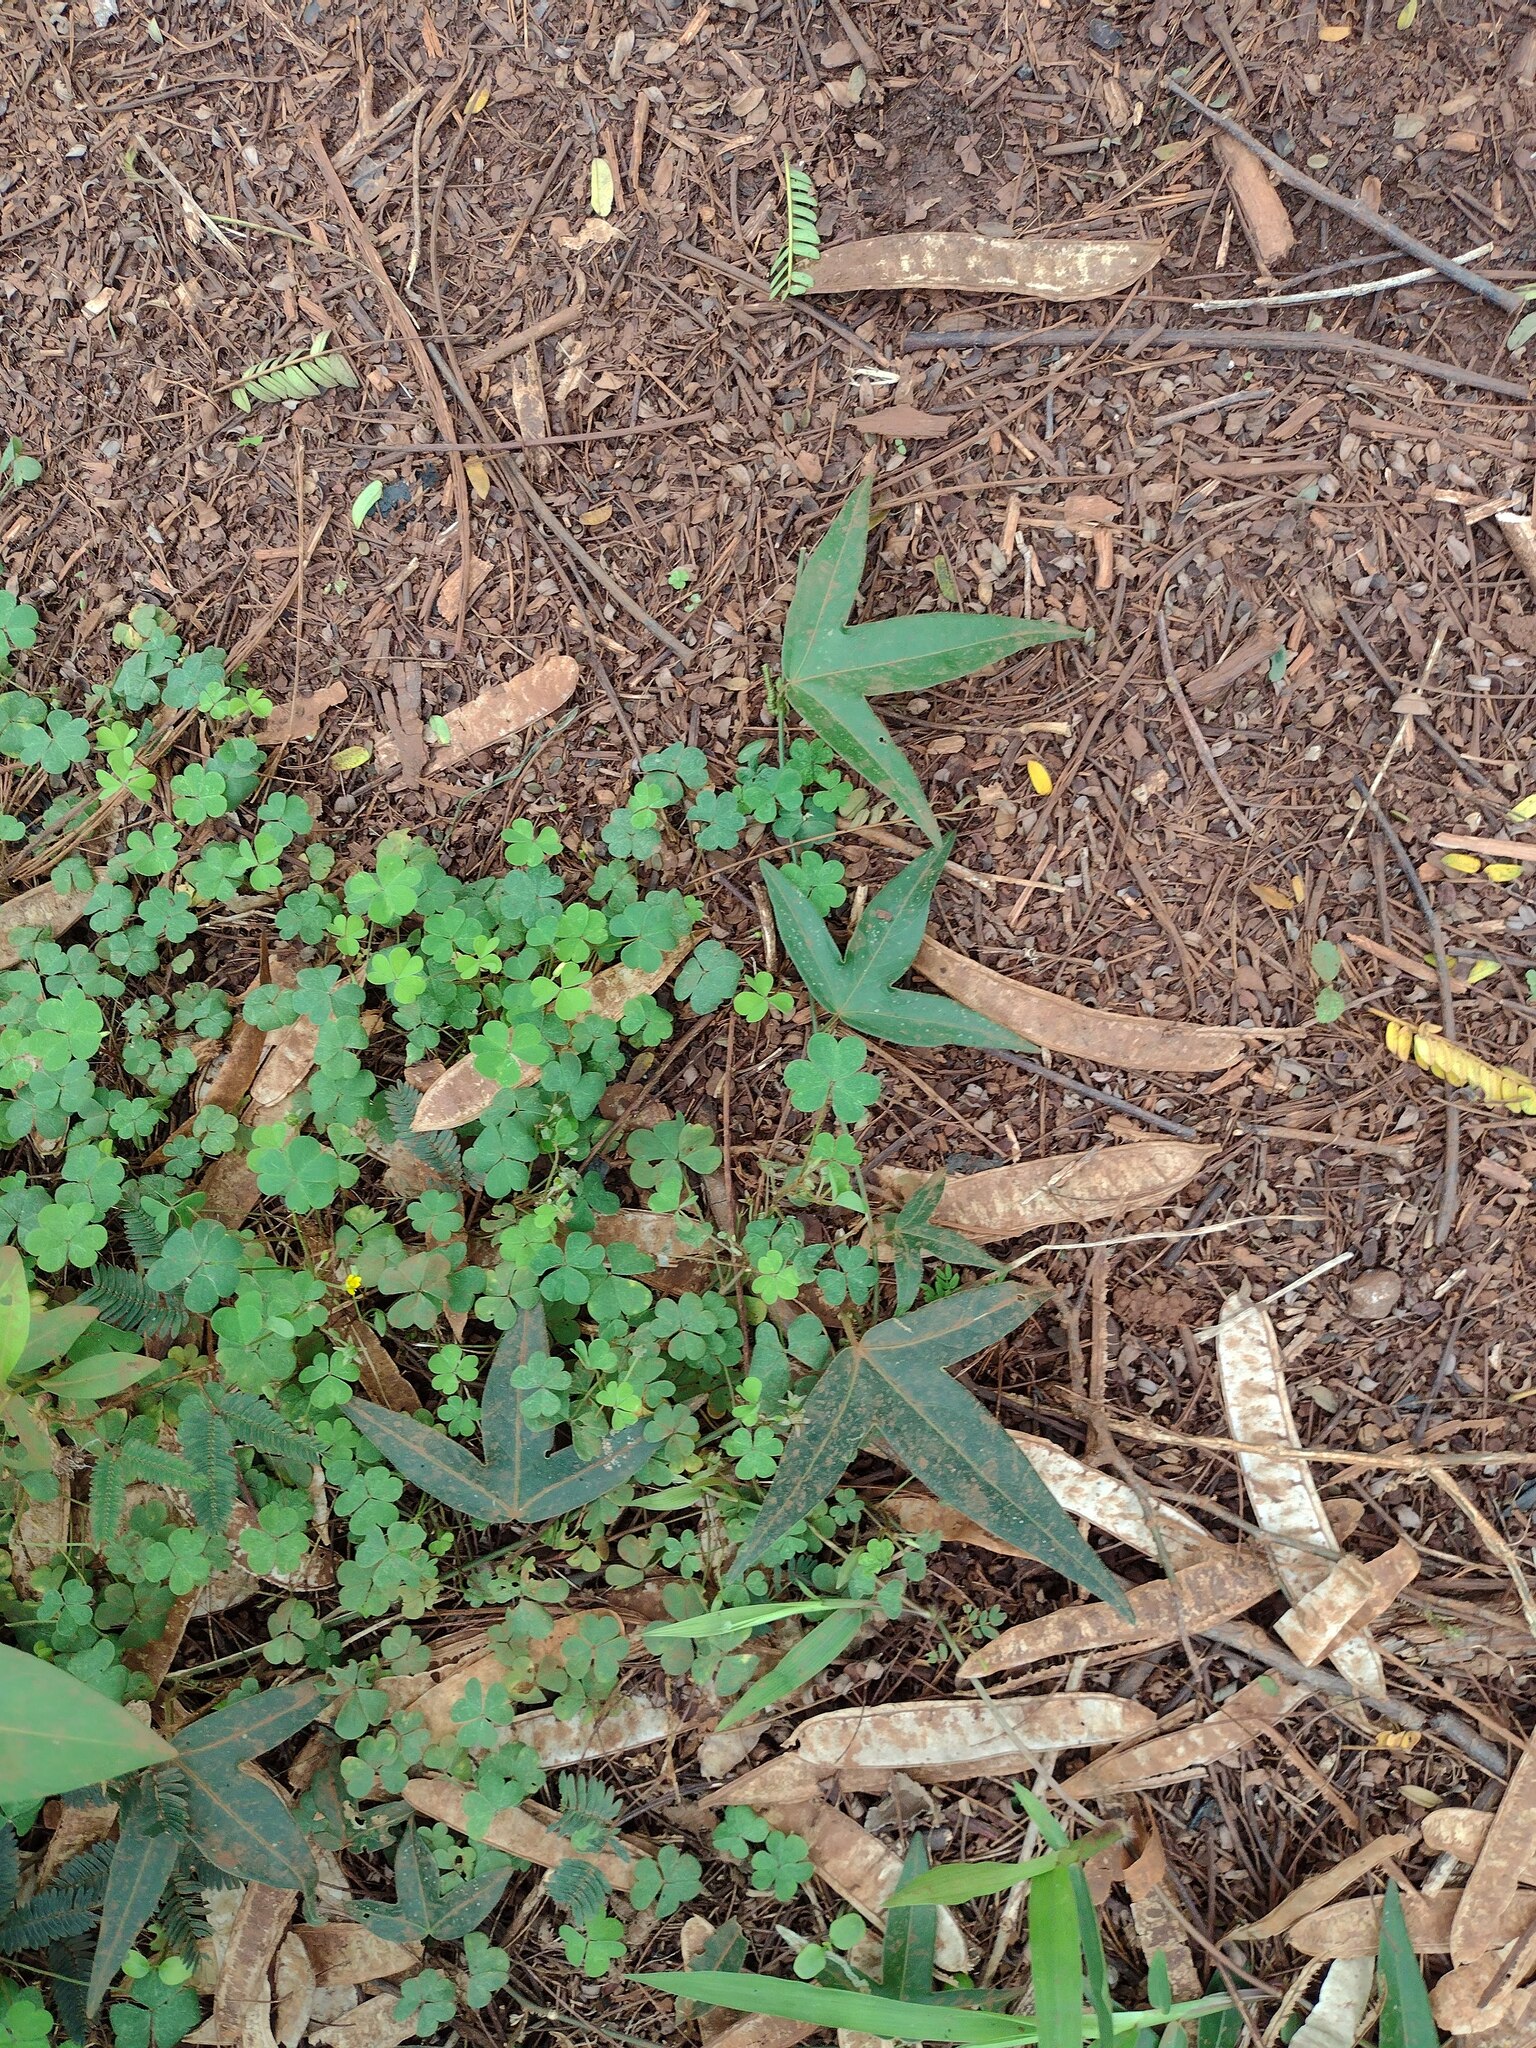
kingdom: Plantae
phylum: Tracheophyta
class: Magnoliopsida
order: Malpighiales
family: Passifloraceae
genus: Passiflora
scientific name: Passiflora suberosa
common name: Wild passionfruit
